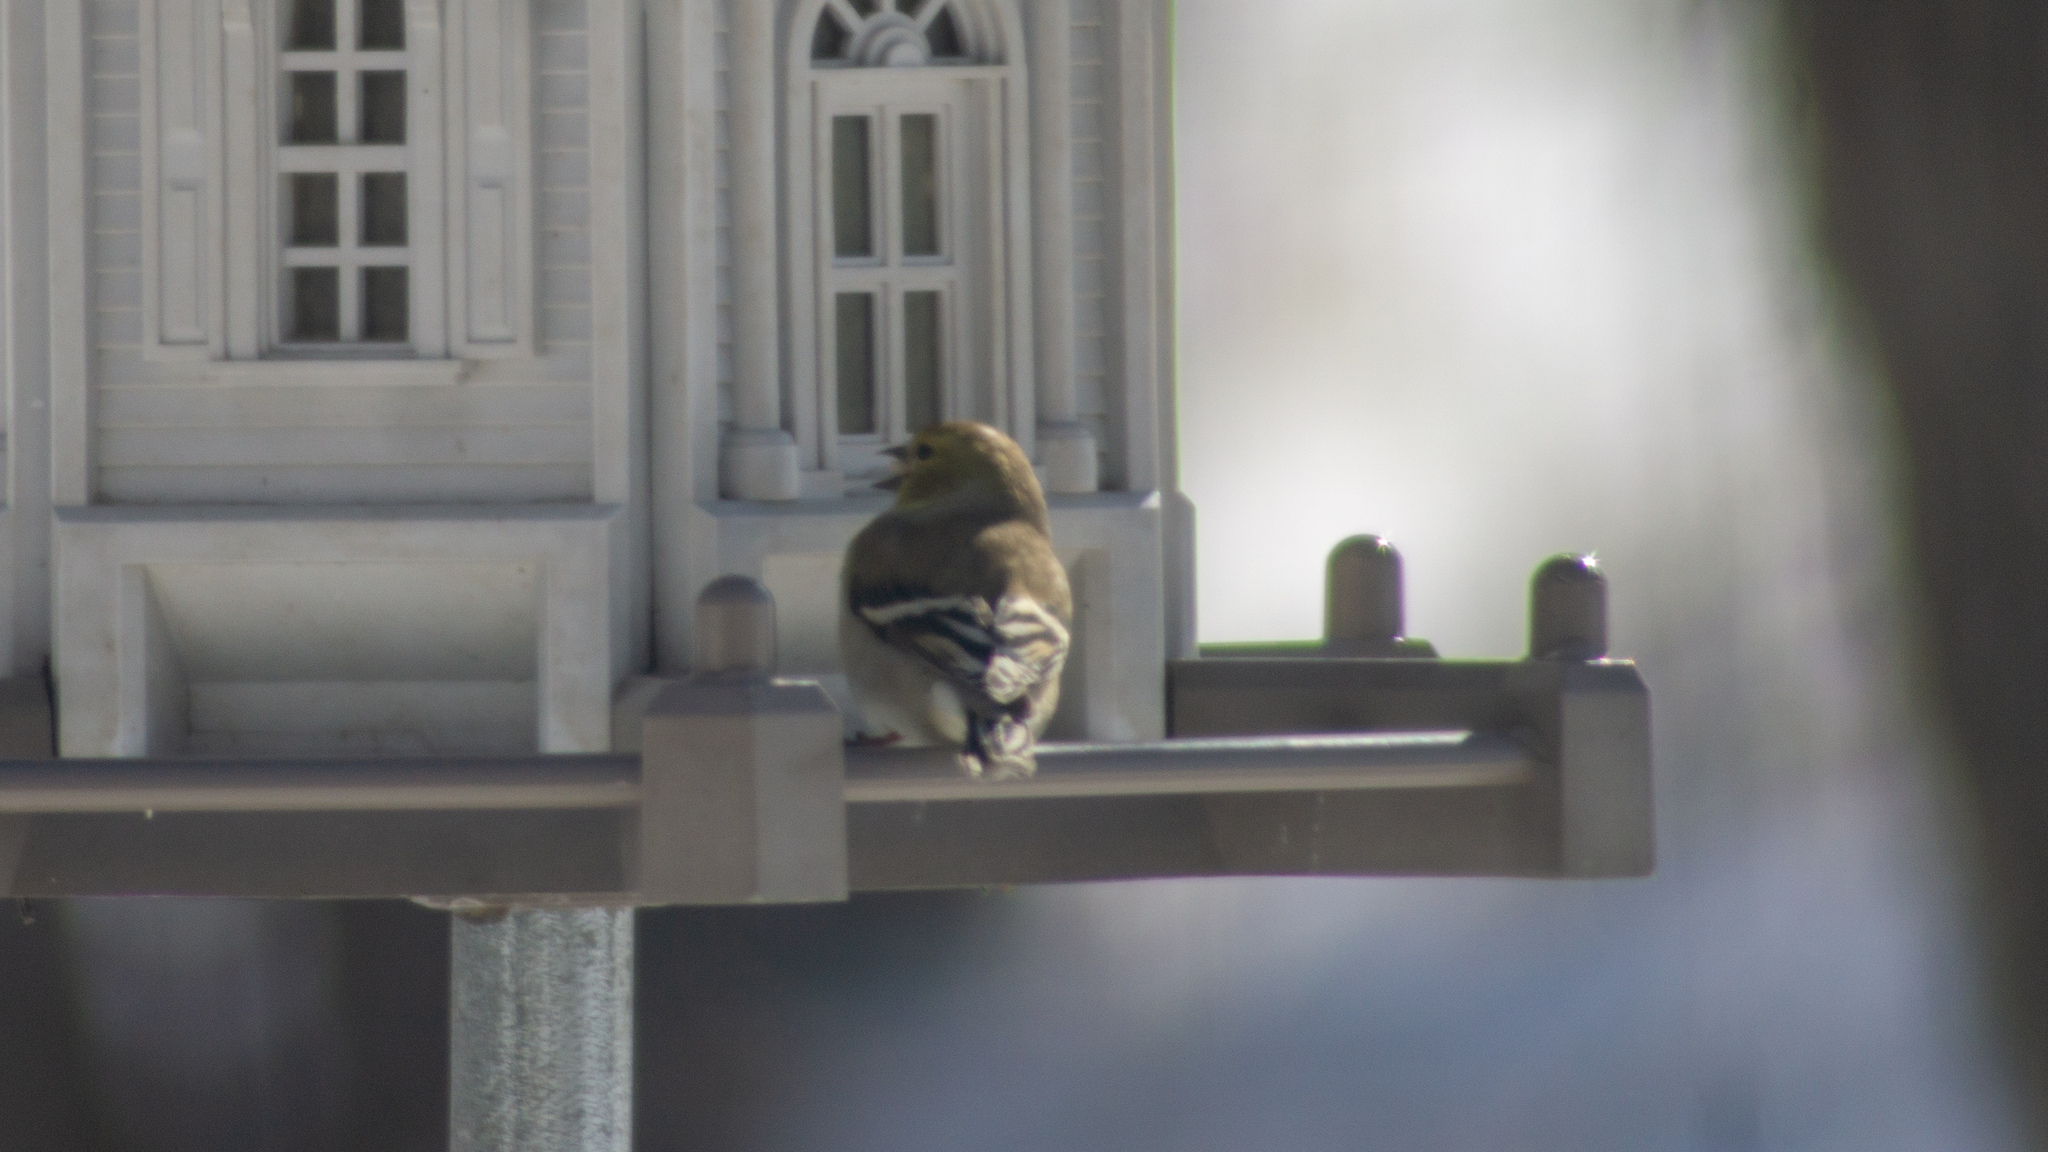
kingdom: Animalia
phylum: Chordata
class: Aves
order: Passeriformes
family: Fringillidae
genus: Spinus
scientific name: Spinus tristis
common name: American goldfinch
